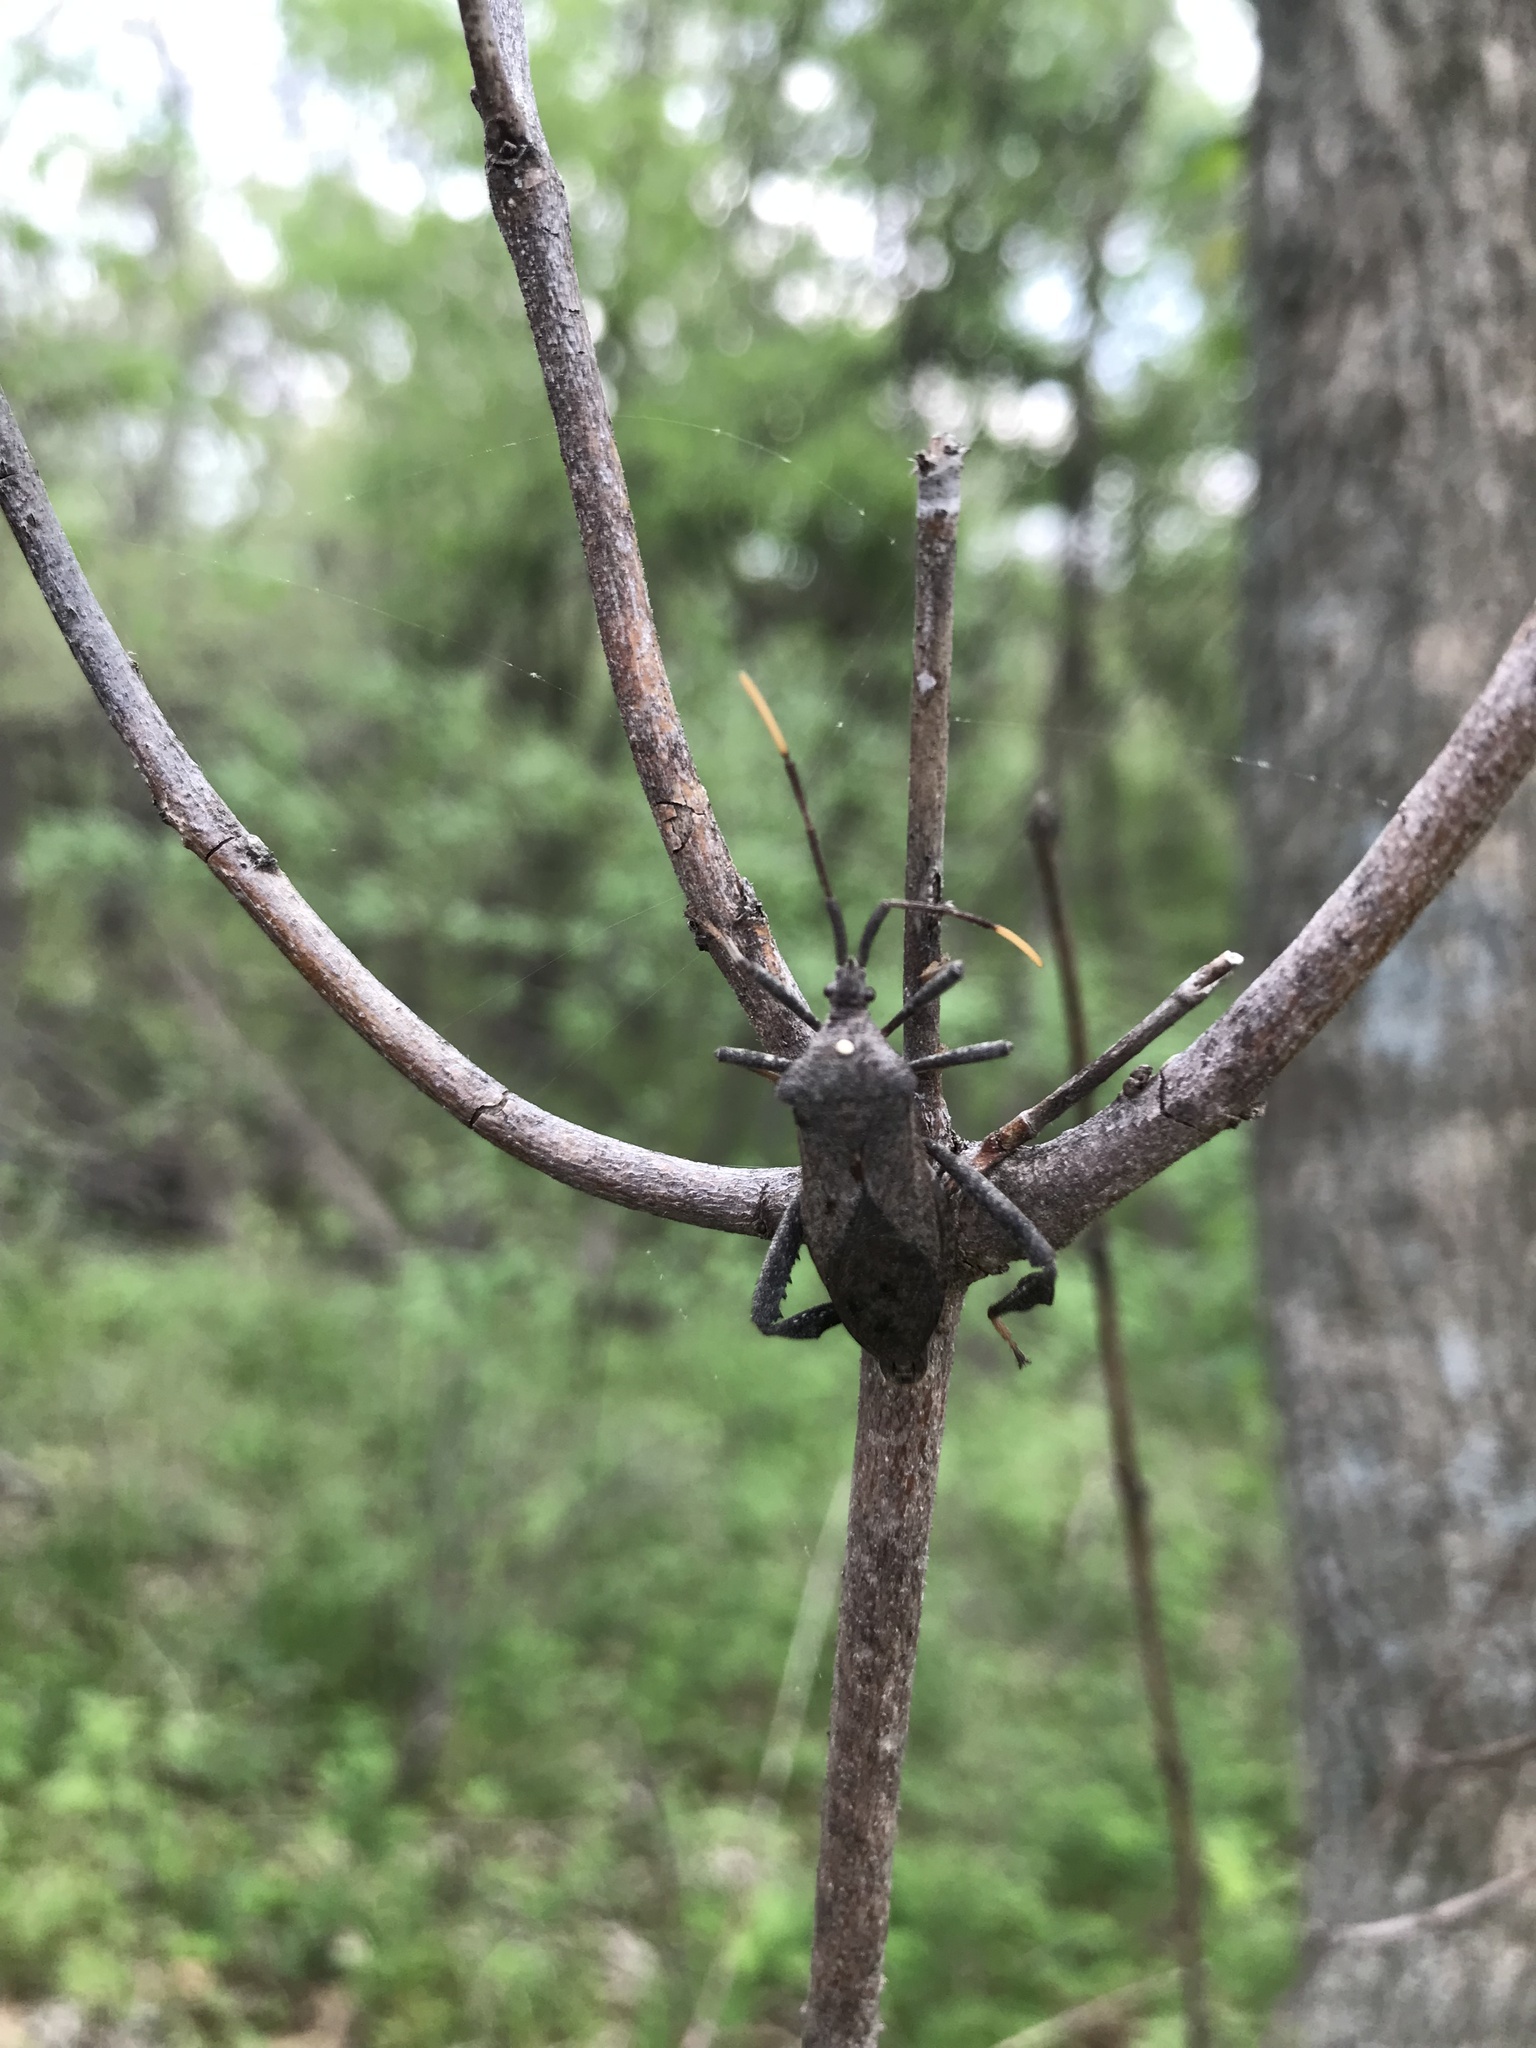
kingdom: Animalia
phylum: Arthropoda
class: Insecta
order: Hemiptera
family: Coreidae
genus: Acanthocephala
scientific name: Acanthocephala terminalis
